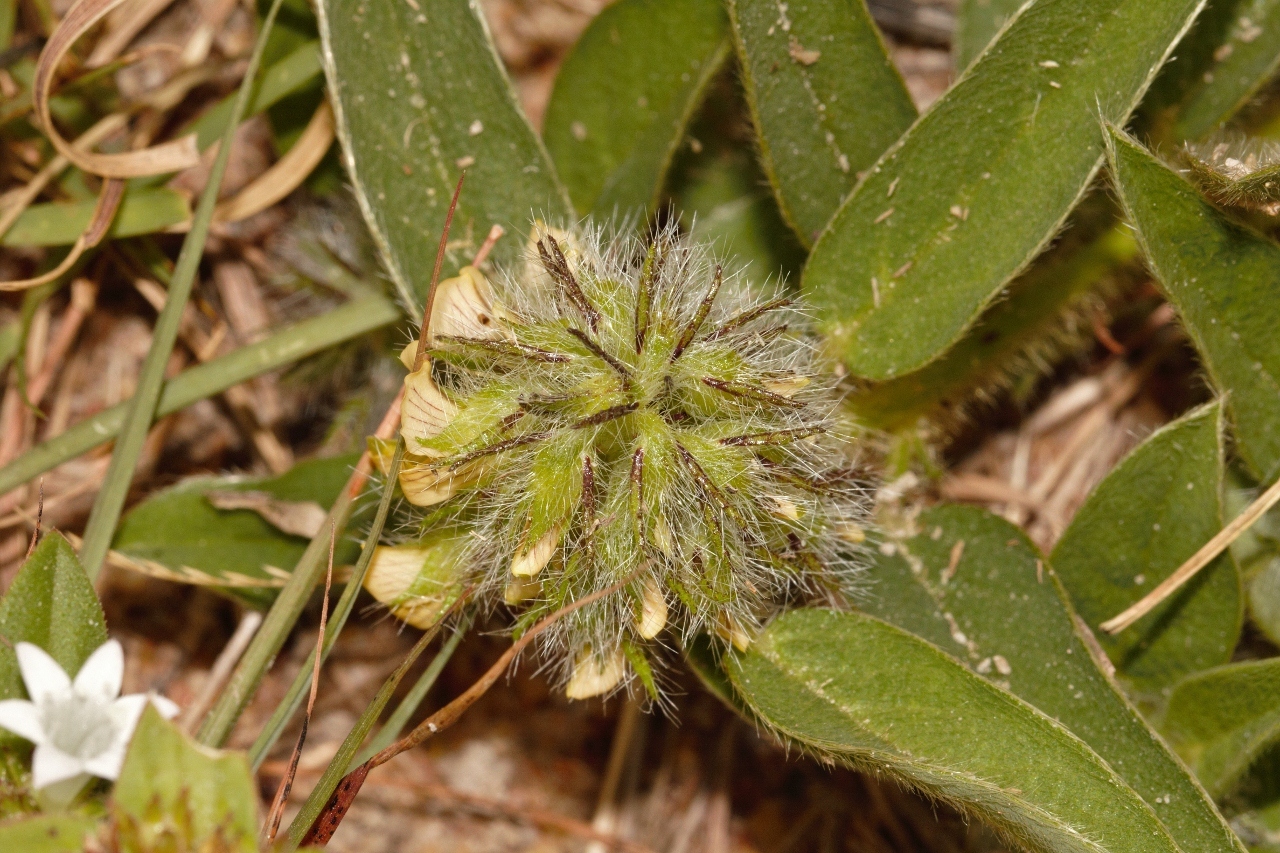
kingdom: Plantae
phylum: Tracheophyta
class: Magnoliopsida
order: Fabales
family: Fabaceae
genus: Crotalaria
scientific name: Crotalaria anthyllopsis
